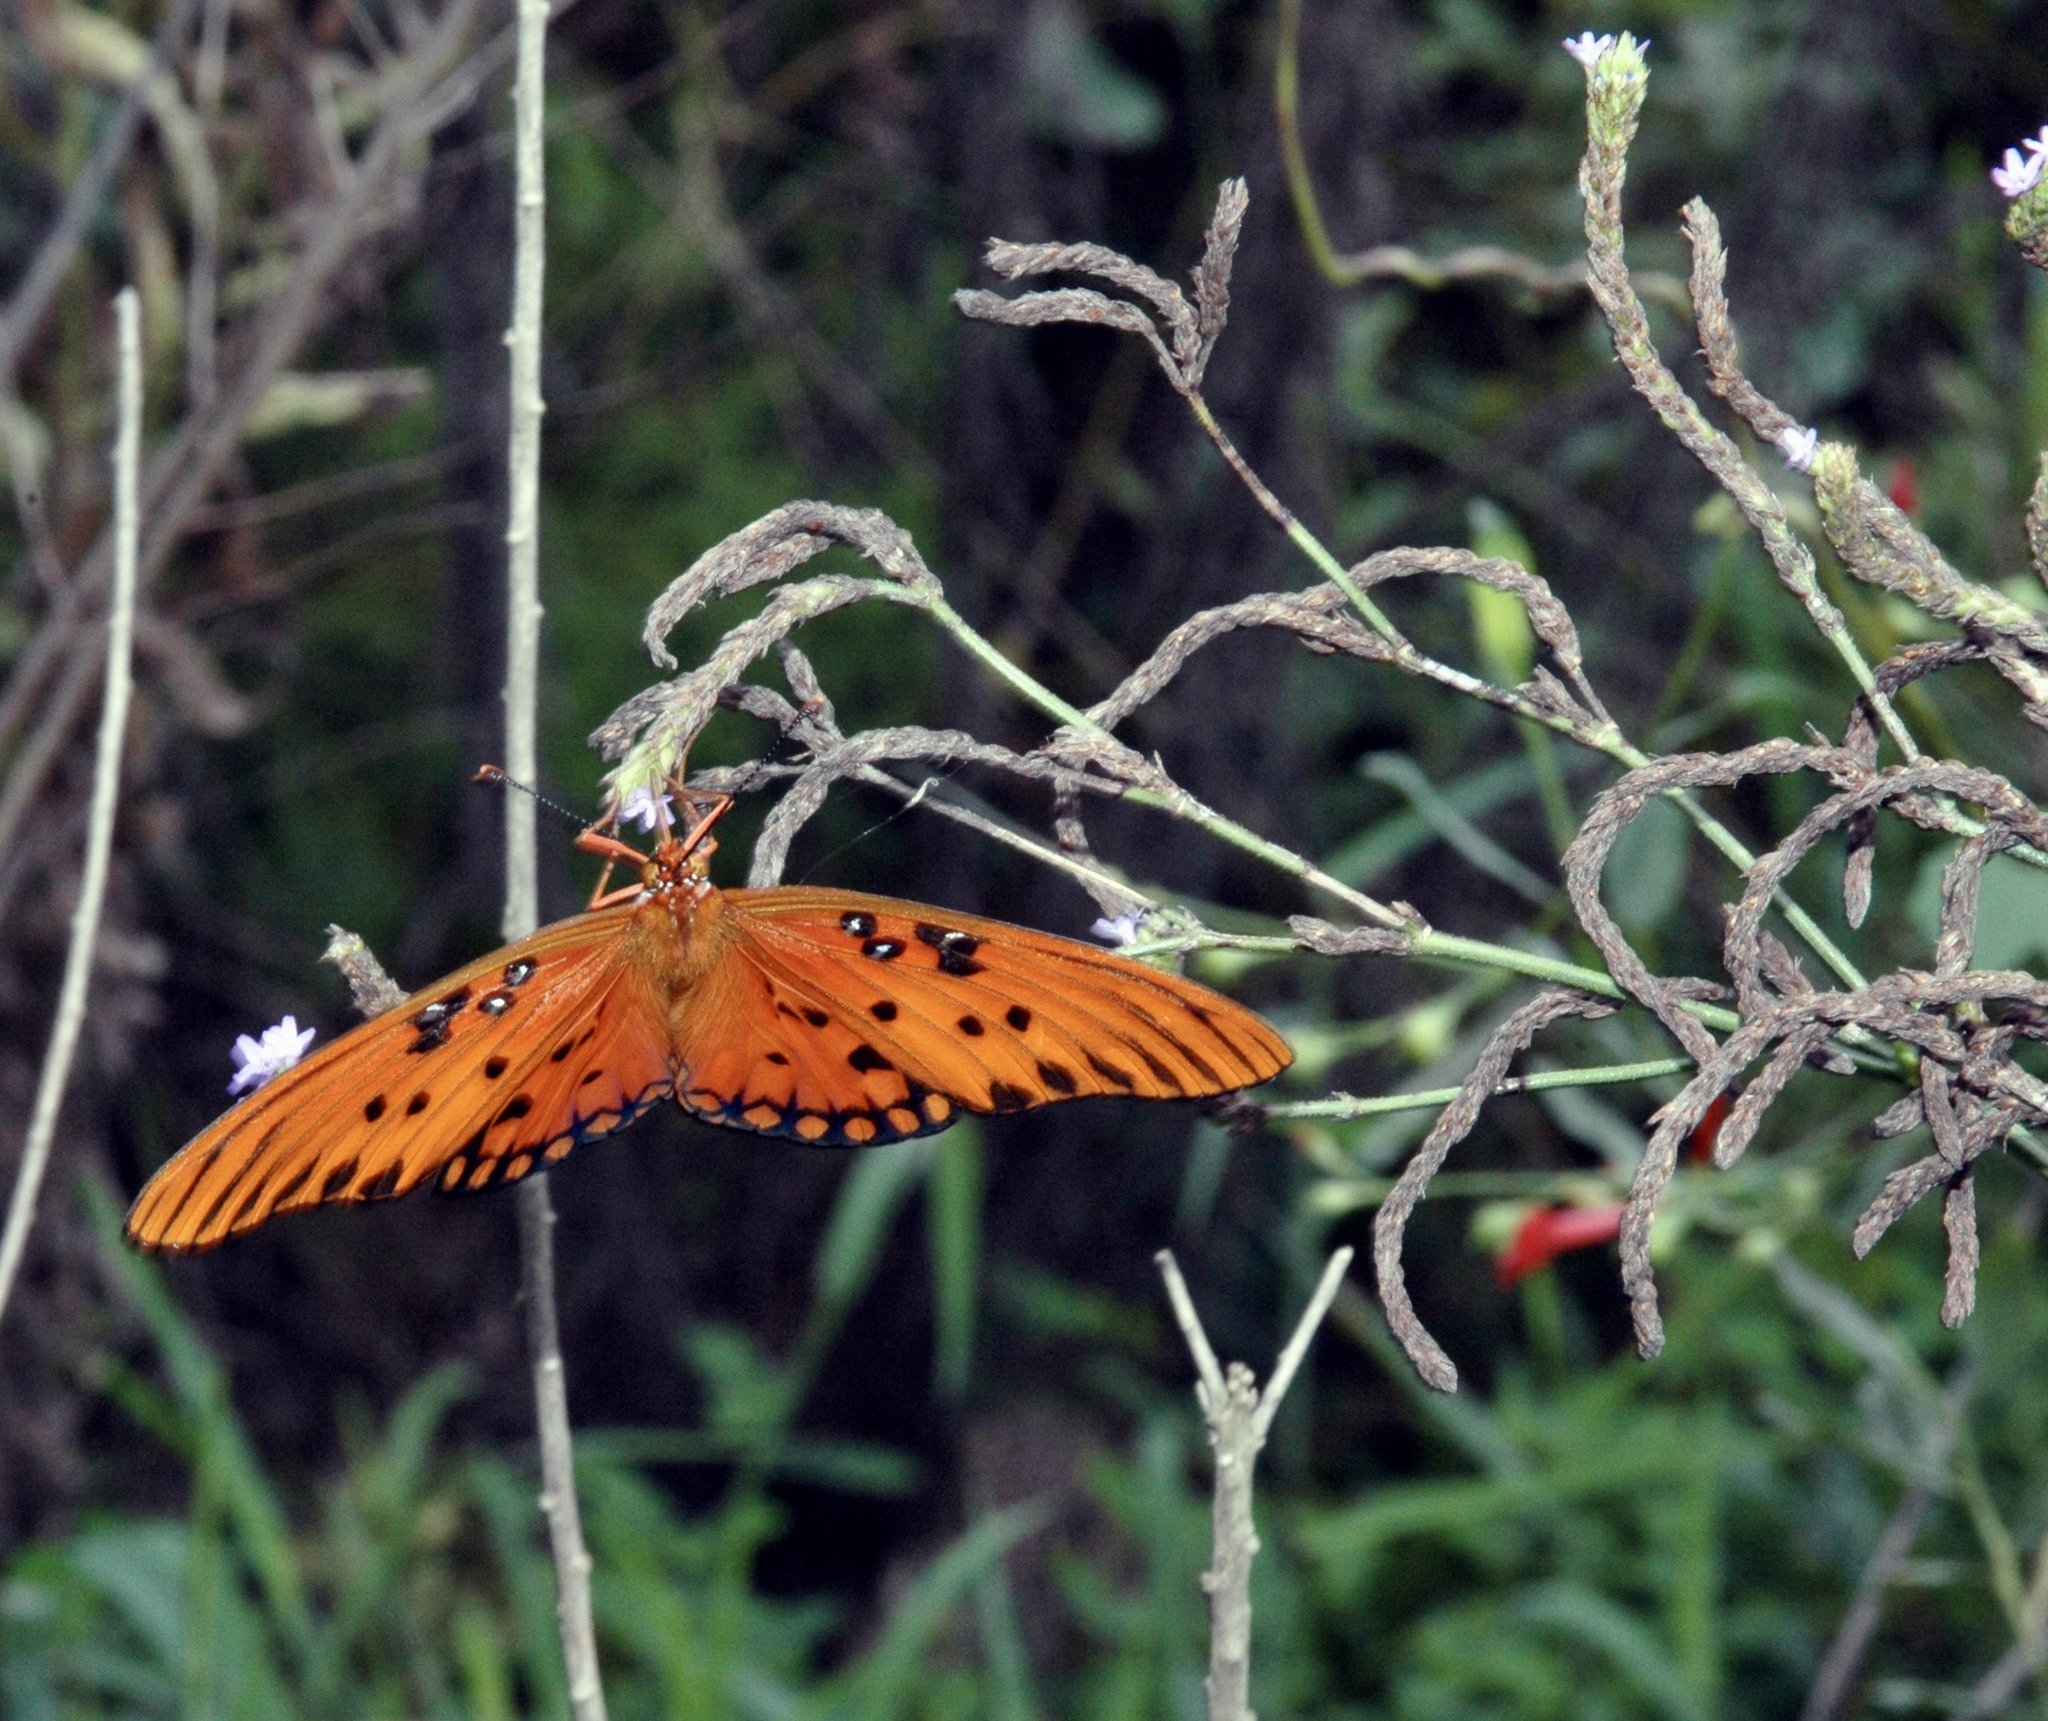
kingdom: Animalia
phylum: Arthropoda
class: Insecta
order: Lepidoptera
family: Nymphalidae
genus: Dione
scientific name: Dione vanillae
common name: Gulf fritillary
